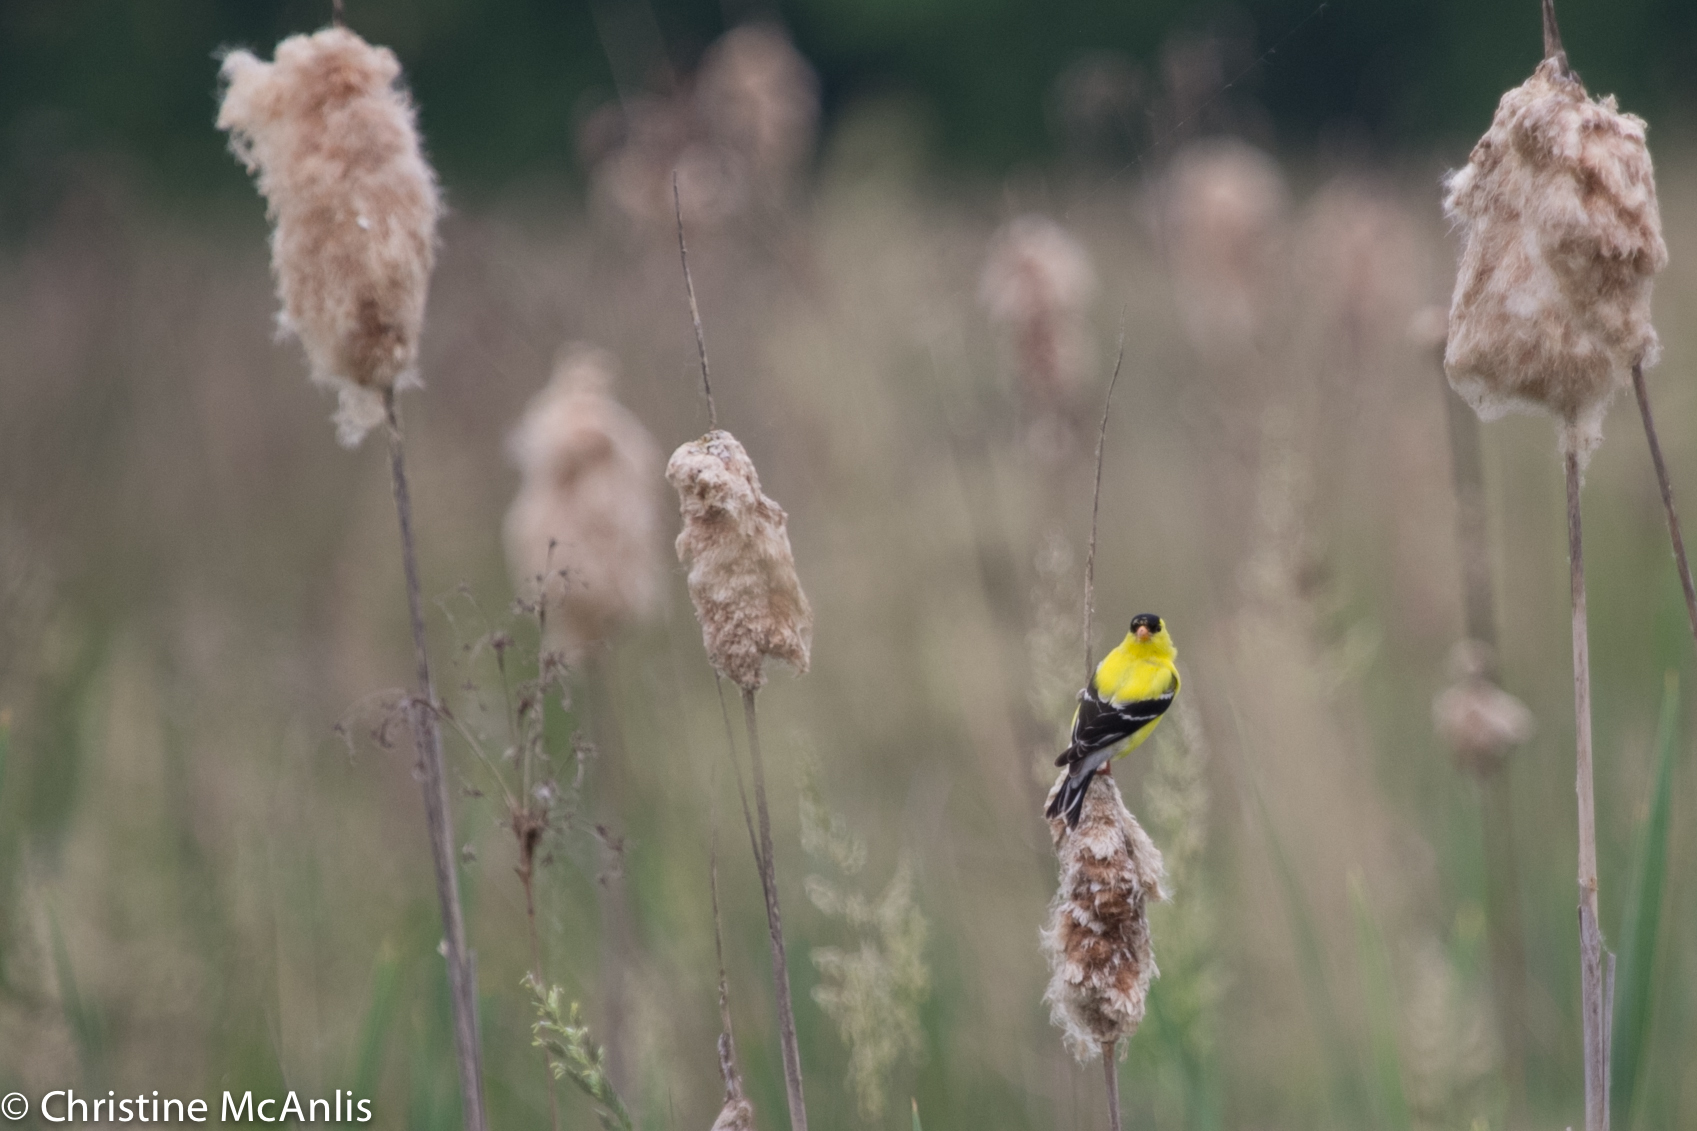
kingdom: Animalia
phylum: Chordata
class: Aves
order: Passeriformes
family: Fringillidae
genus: Spinus
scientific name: Spinus tristis
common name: American goldfinch
